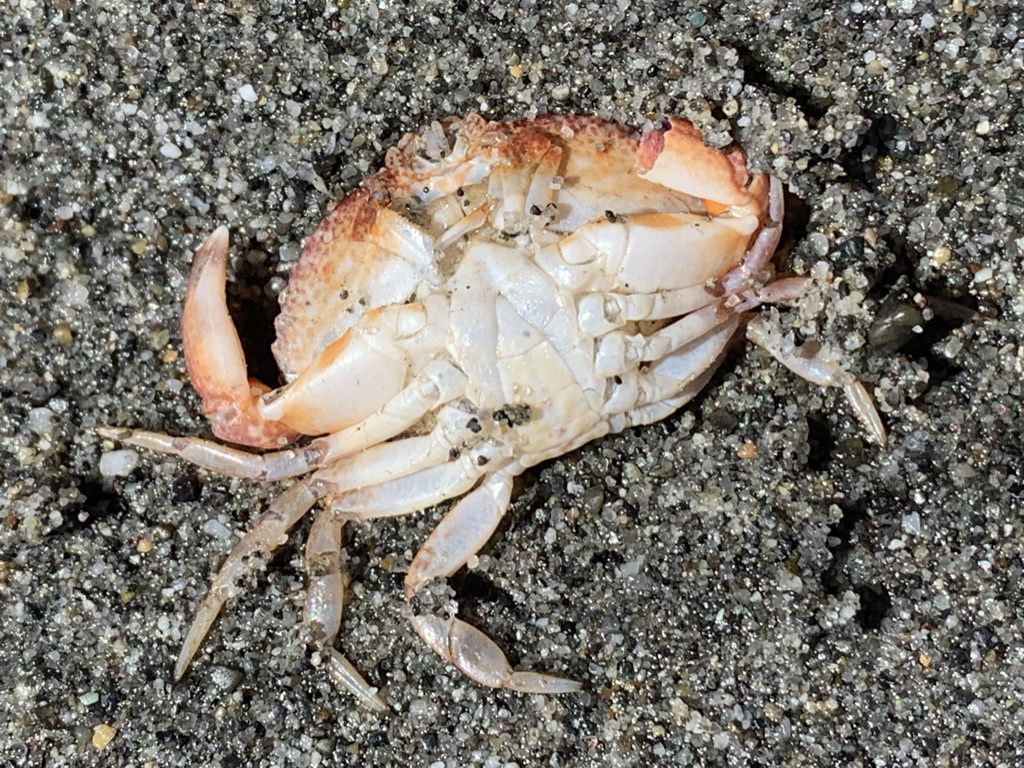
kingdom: Animalia
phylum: Arthropoda
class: Malacostraca
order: Decapoda
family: Cancridae
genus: Cancer
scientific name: Cancer productus
